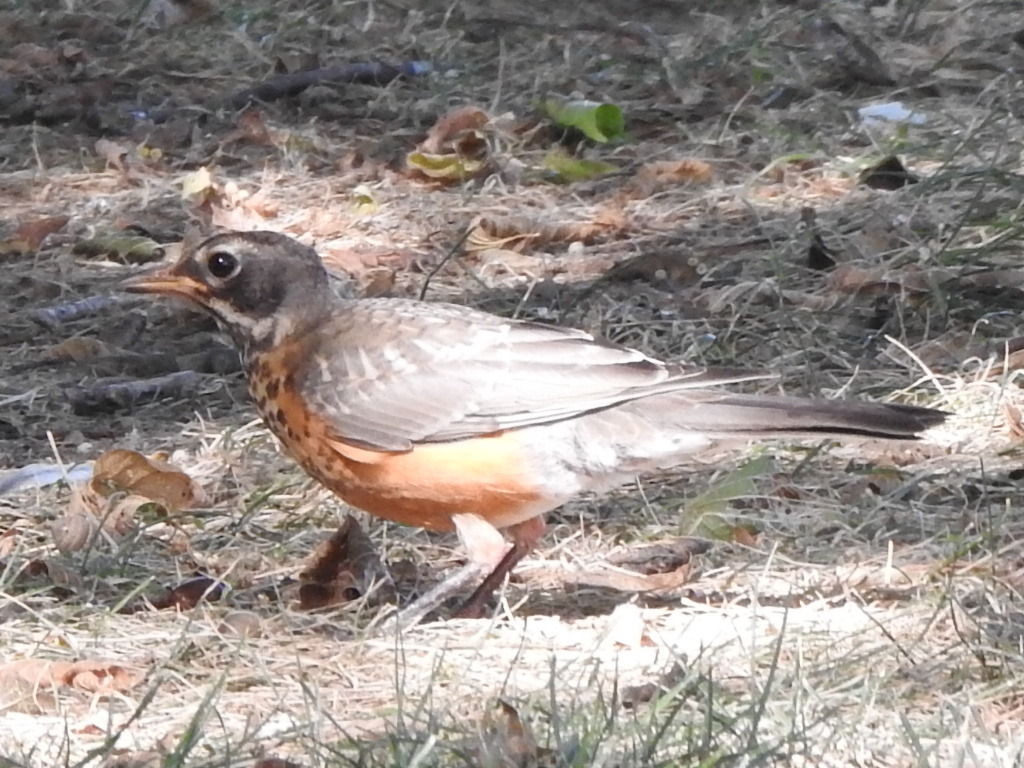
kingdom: Animalia
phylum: Chordata
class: Aves
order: Passeriformes
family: Turdidae
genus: Turdus
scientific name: Turdus migratorius
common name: American robin
